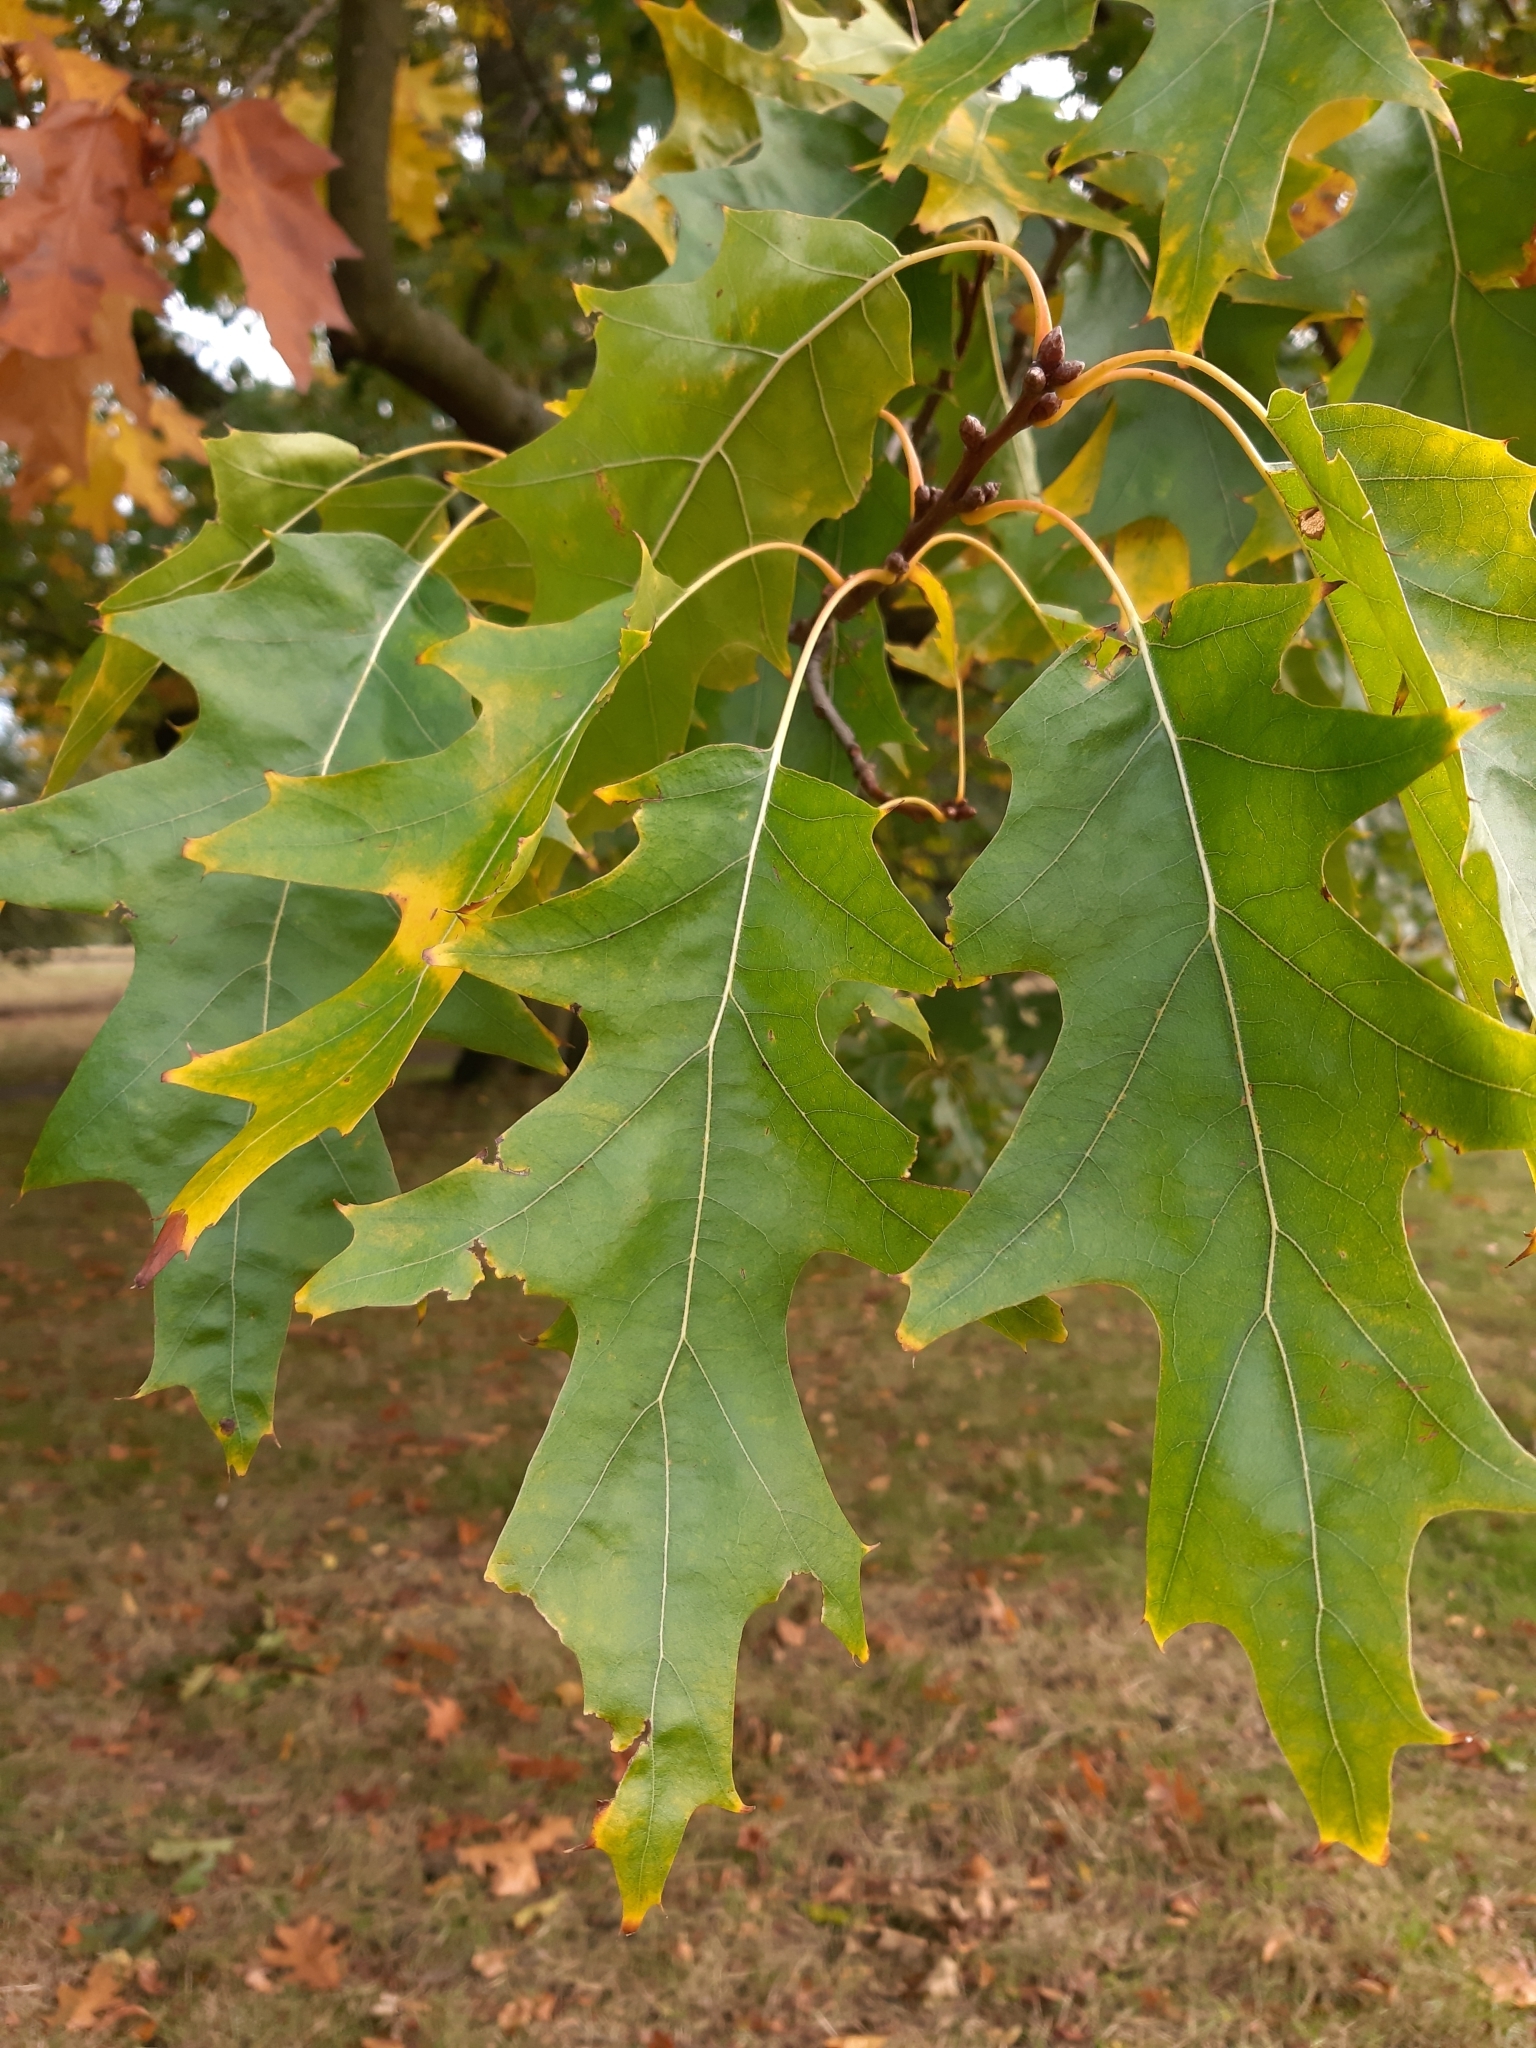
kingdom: Plantae
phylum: Tracheophyta
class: Magnoliopsida
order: Fagales
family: Fagaceae
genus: Quercus
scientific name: Quercus rubra
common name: Red oak
